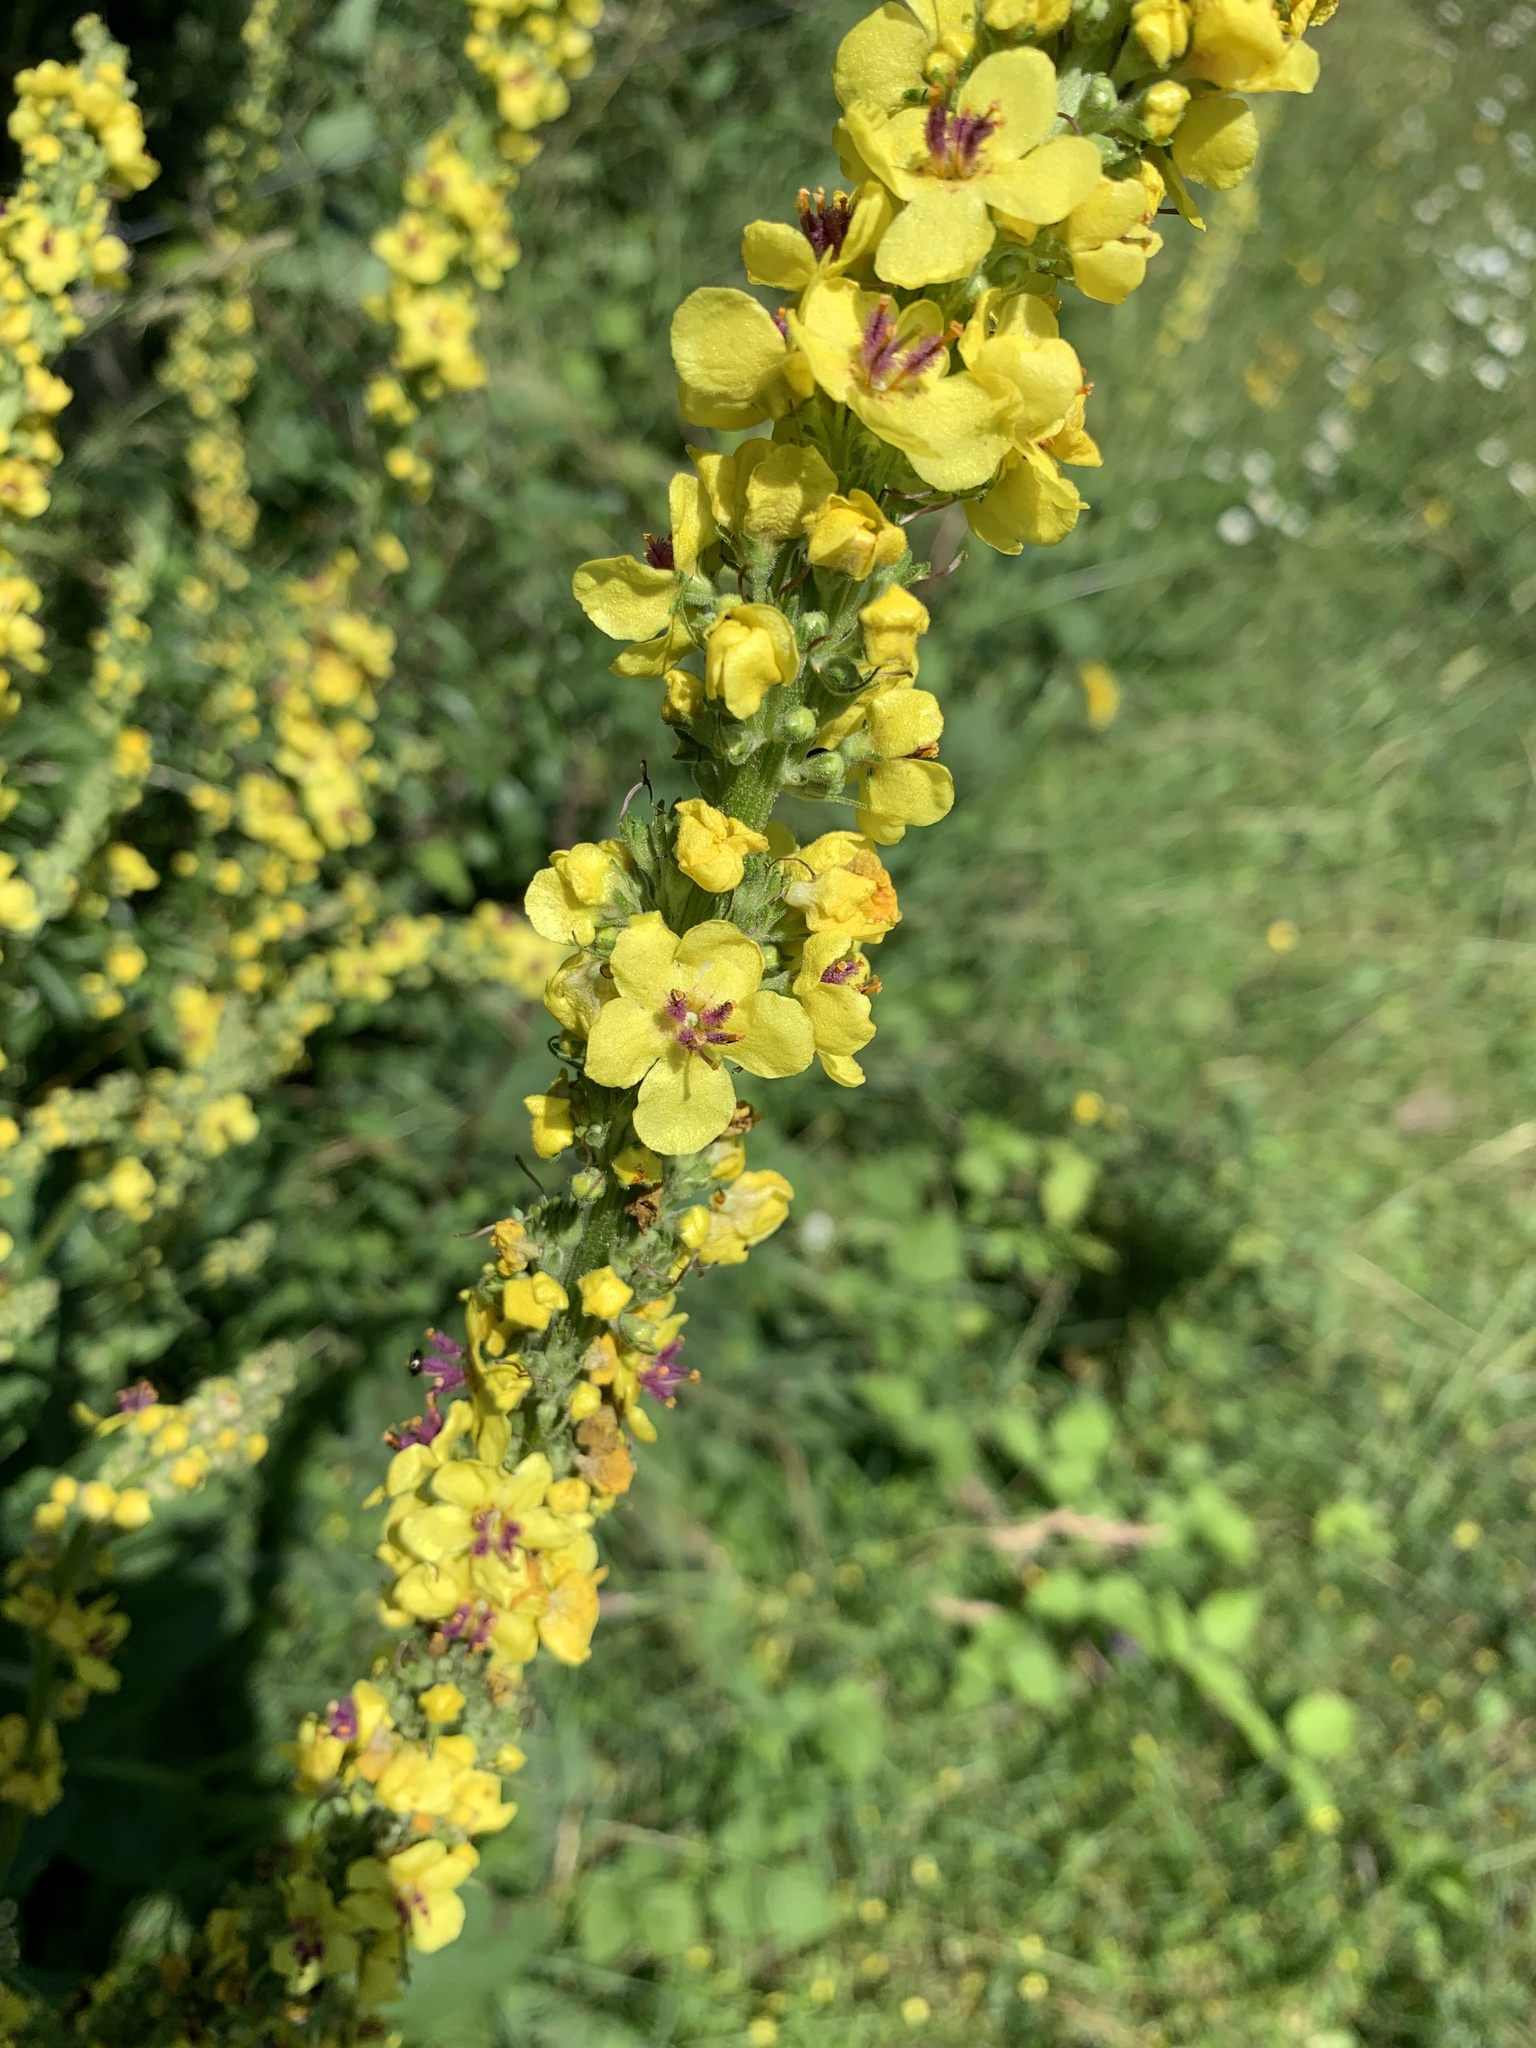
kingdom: Plantae
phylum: Tracheophyta
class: Magnoliopsida
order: Lamiales
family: Scrophulariaceae
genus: Verbascum
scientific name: Verbascum nigrum
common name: Dark mullein
